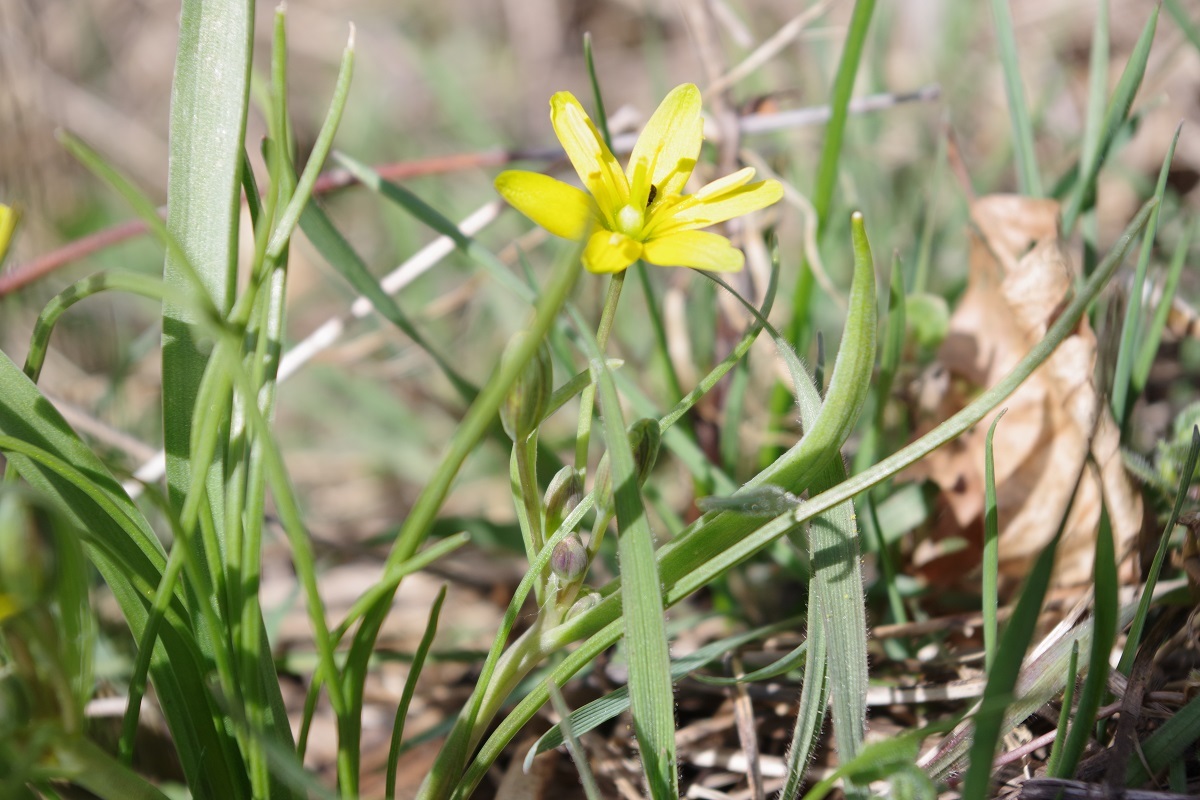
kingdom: Plantae
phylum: Tracheophyta
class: Liliopsida
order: Liliales
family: Liliaceae
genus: Gagea
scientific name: Gagea lutea
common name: Yellow star-of-bethlehem
